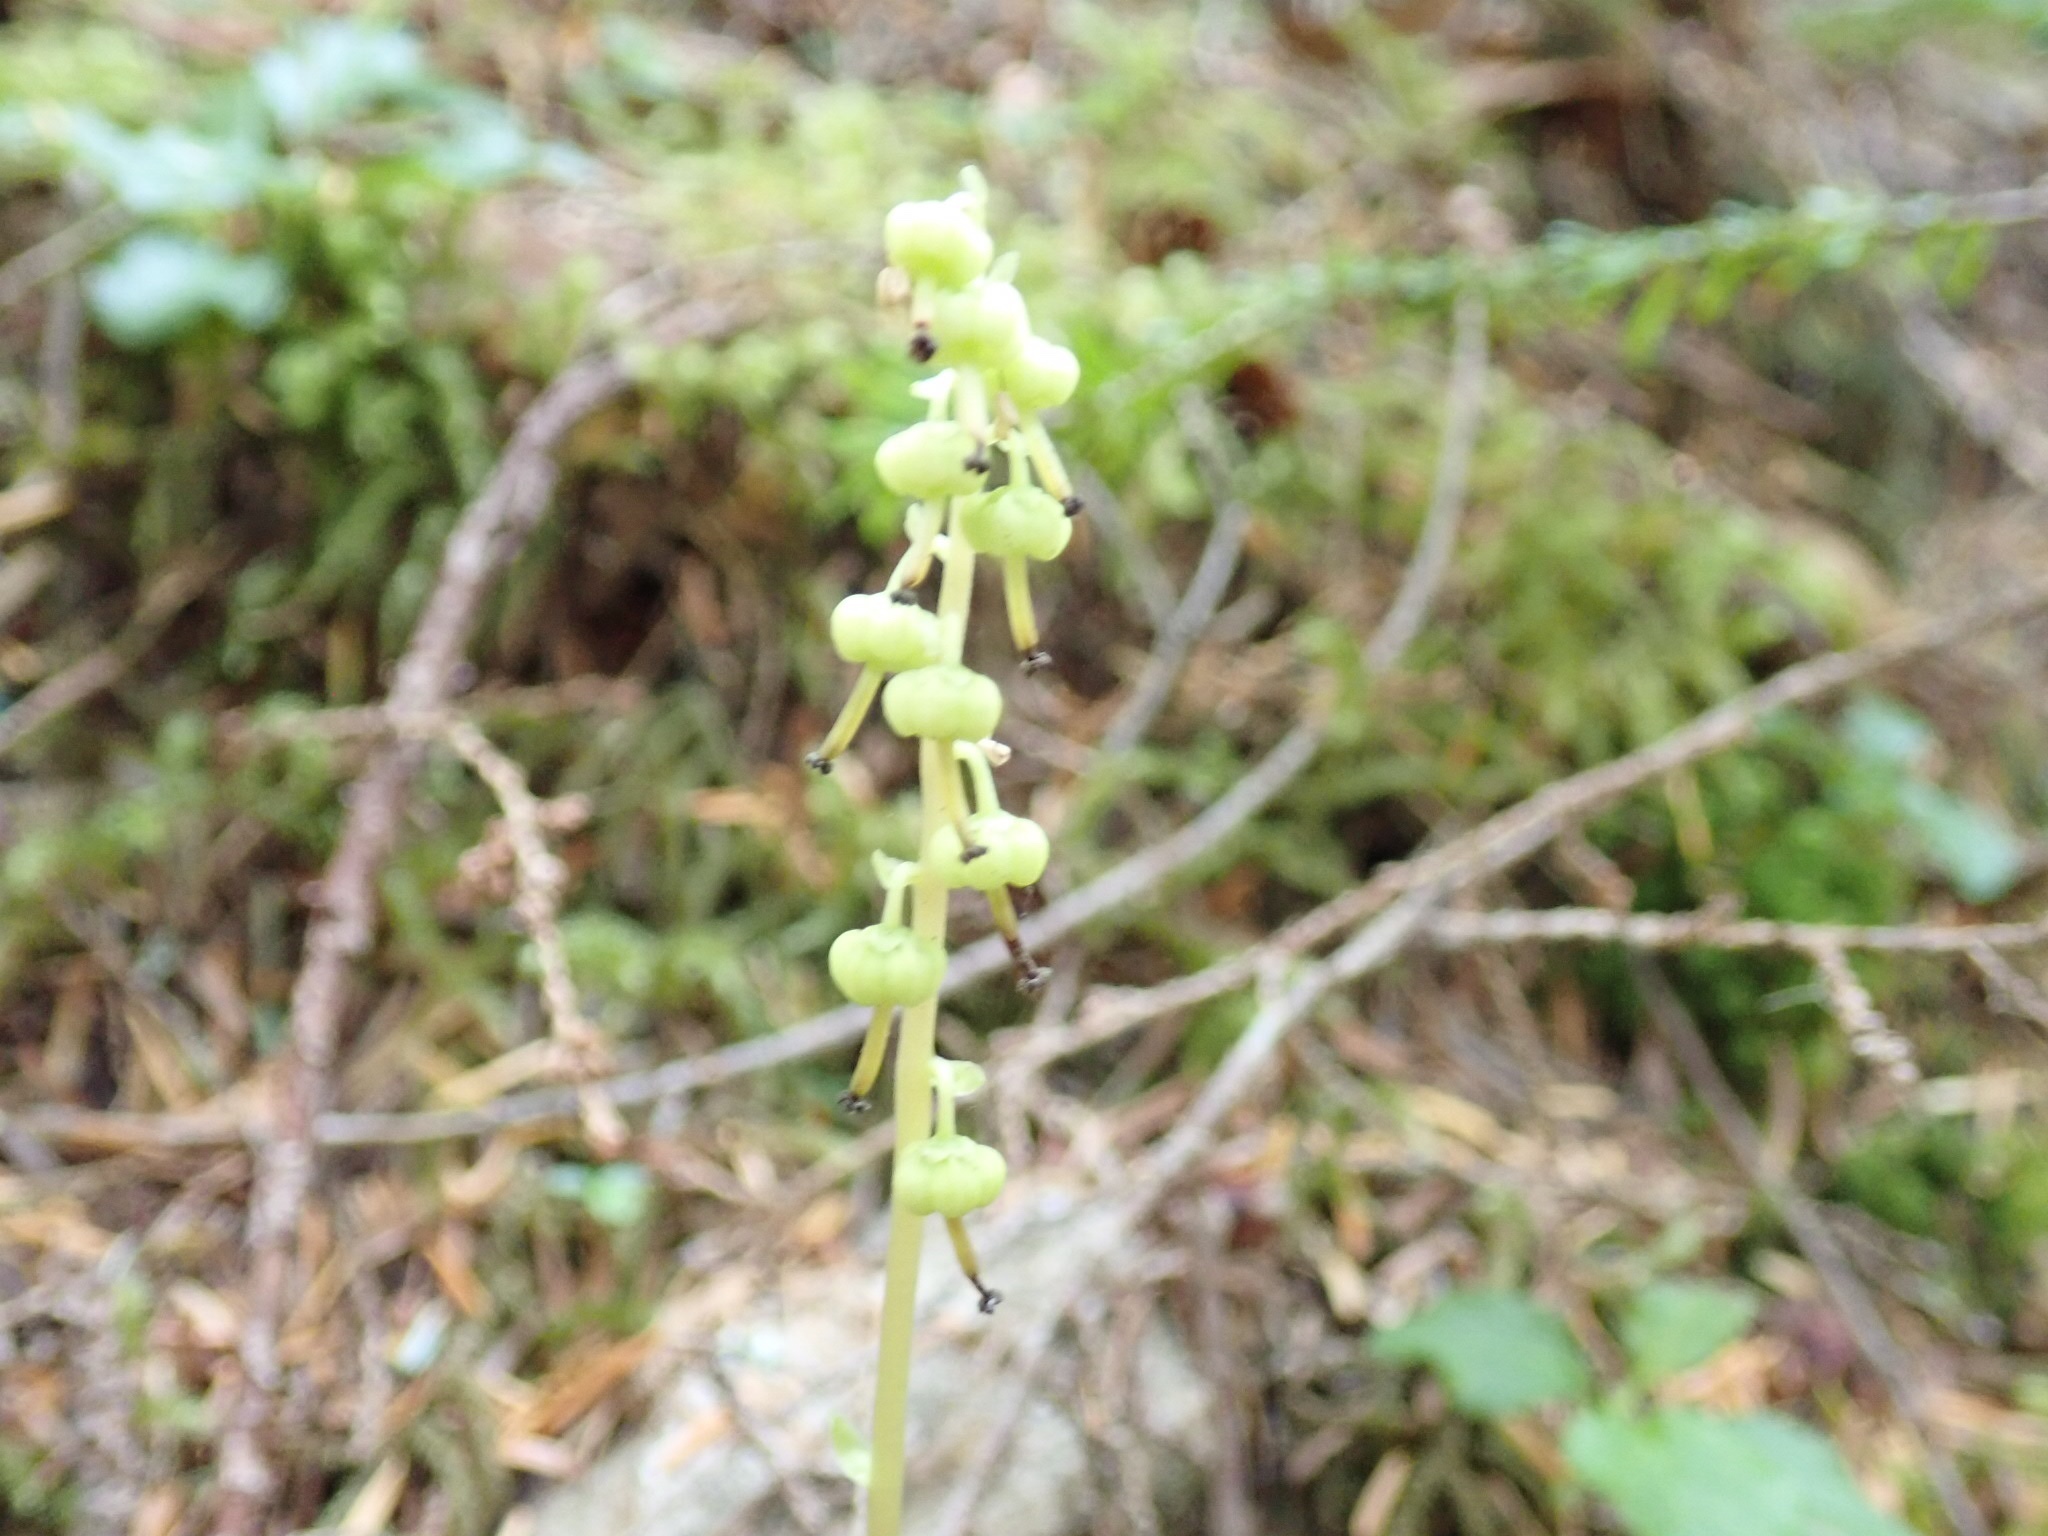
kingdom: Plantae
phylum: Tracheophyta
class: Magnoliopsida
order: Ericales
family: Ericaceae
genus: Orthilia
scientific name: Orthilia secunda
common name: One-sided orthilia
